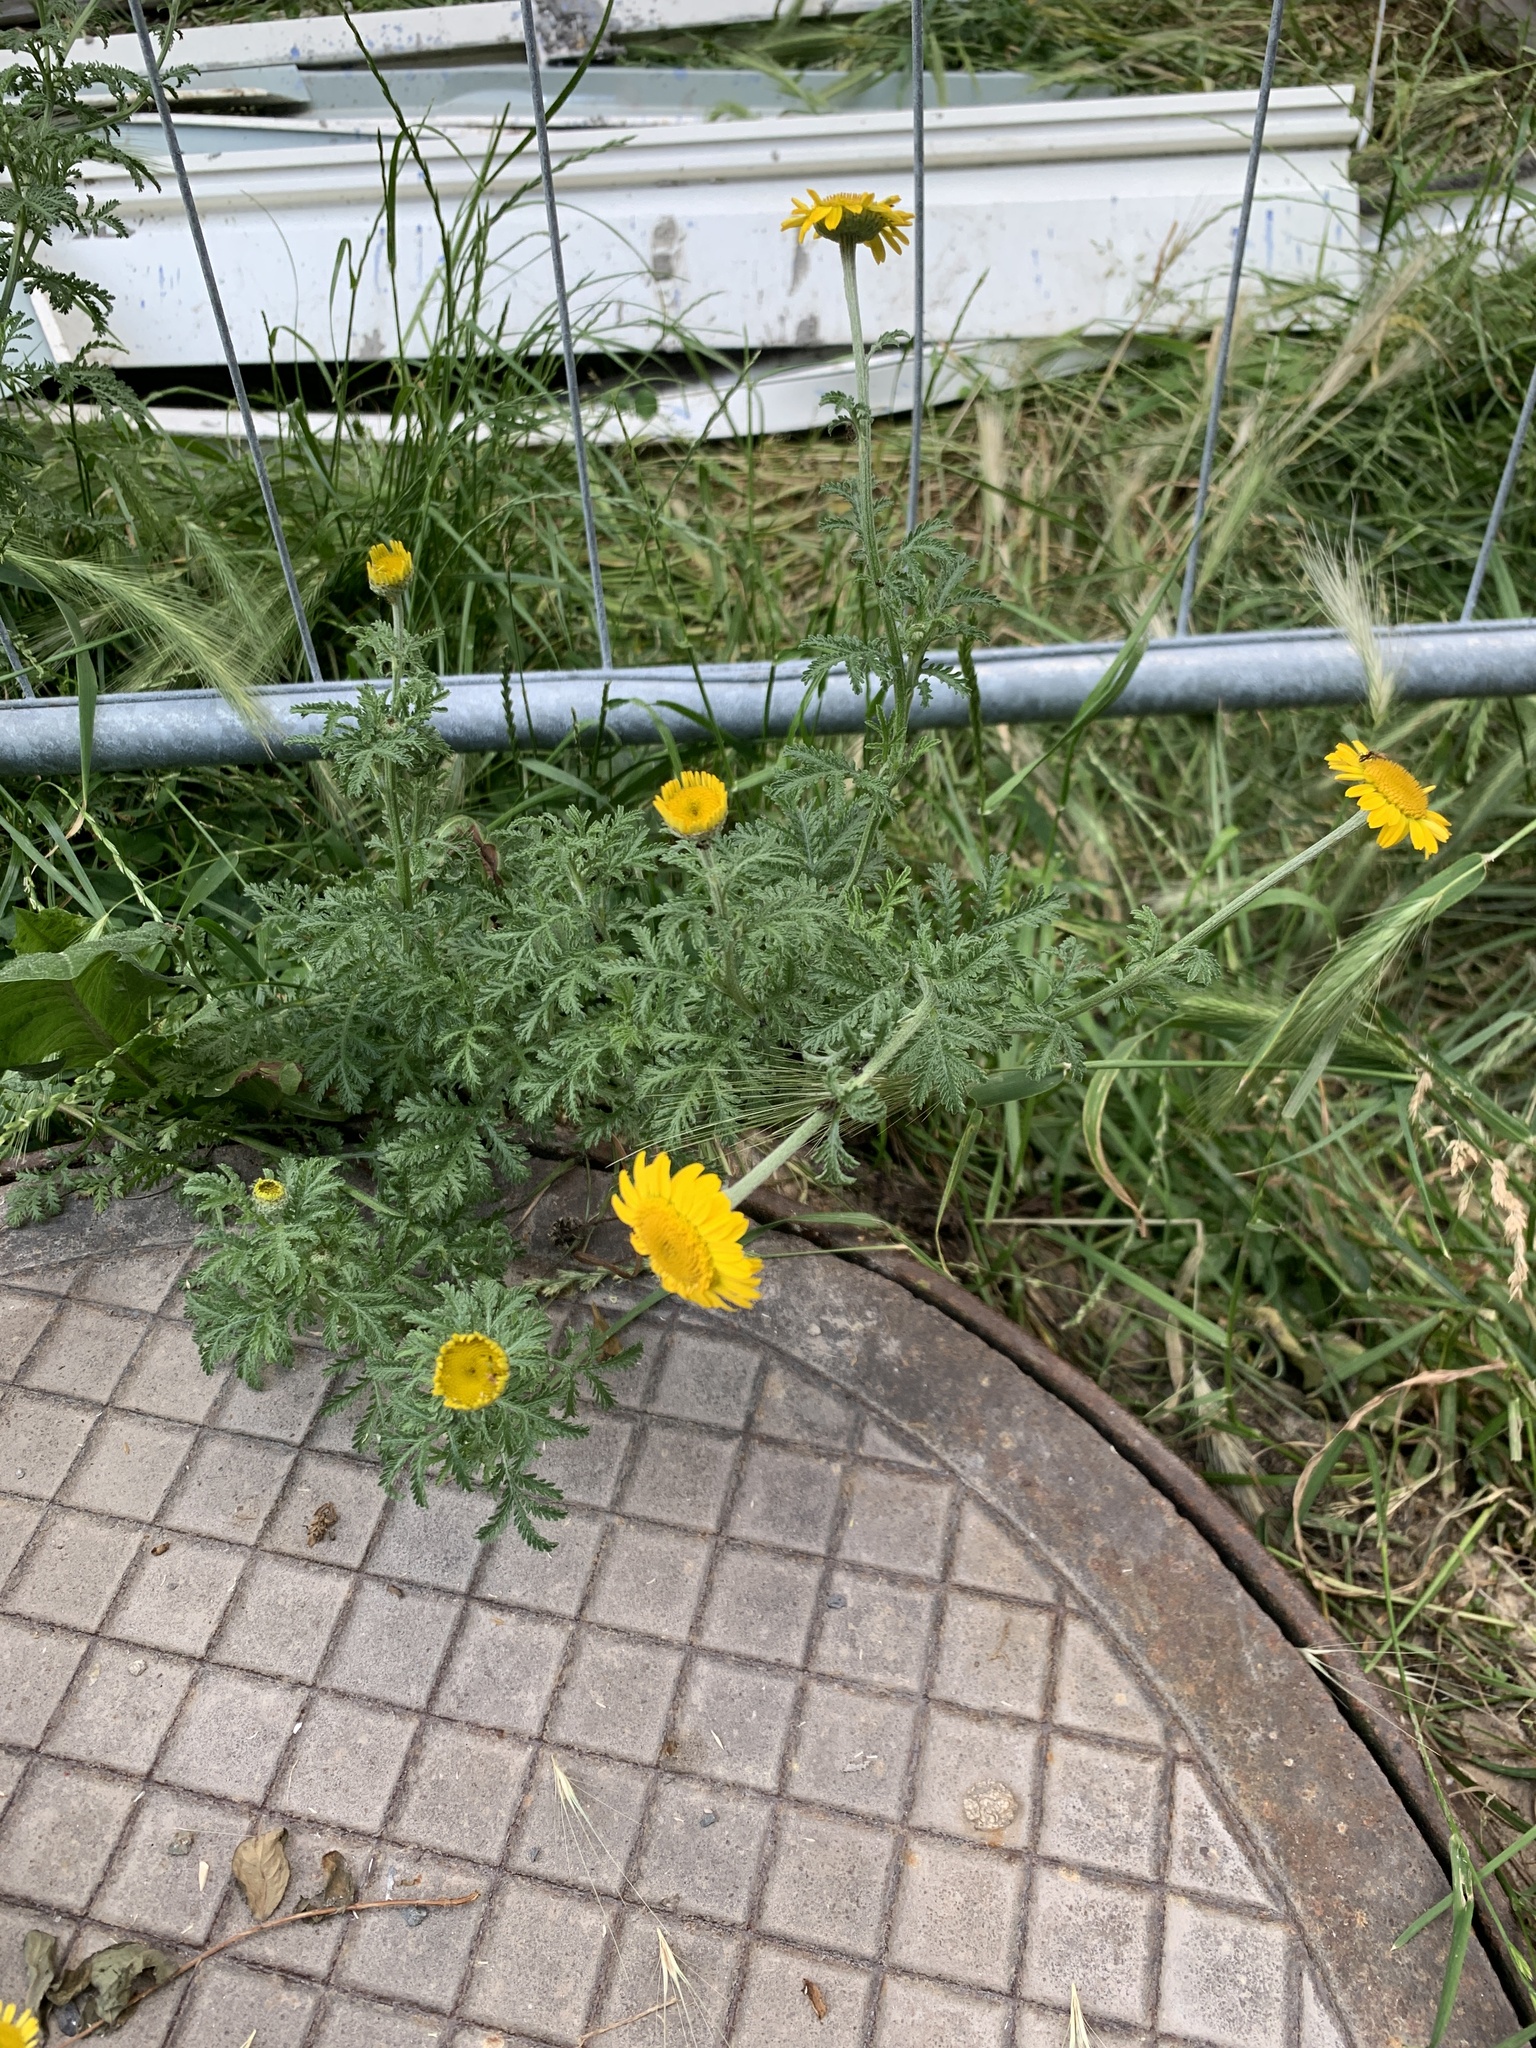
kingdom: Plantae
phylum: Tracheophyta
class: Magnoliopsida
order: Asterales
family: Asteraceae
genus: Cota
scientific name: Cota tinctoria
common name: Golden chamomile
